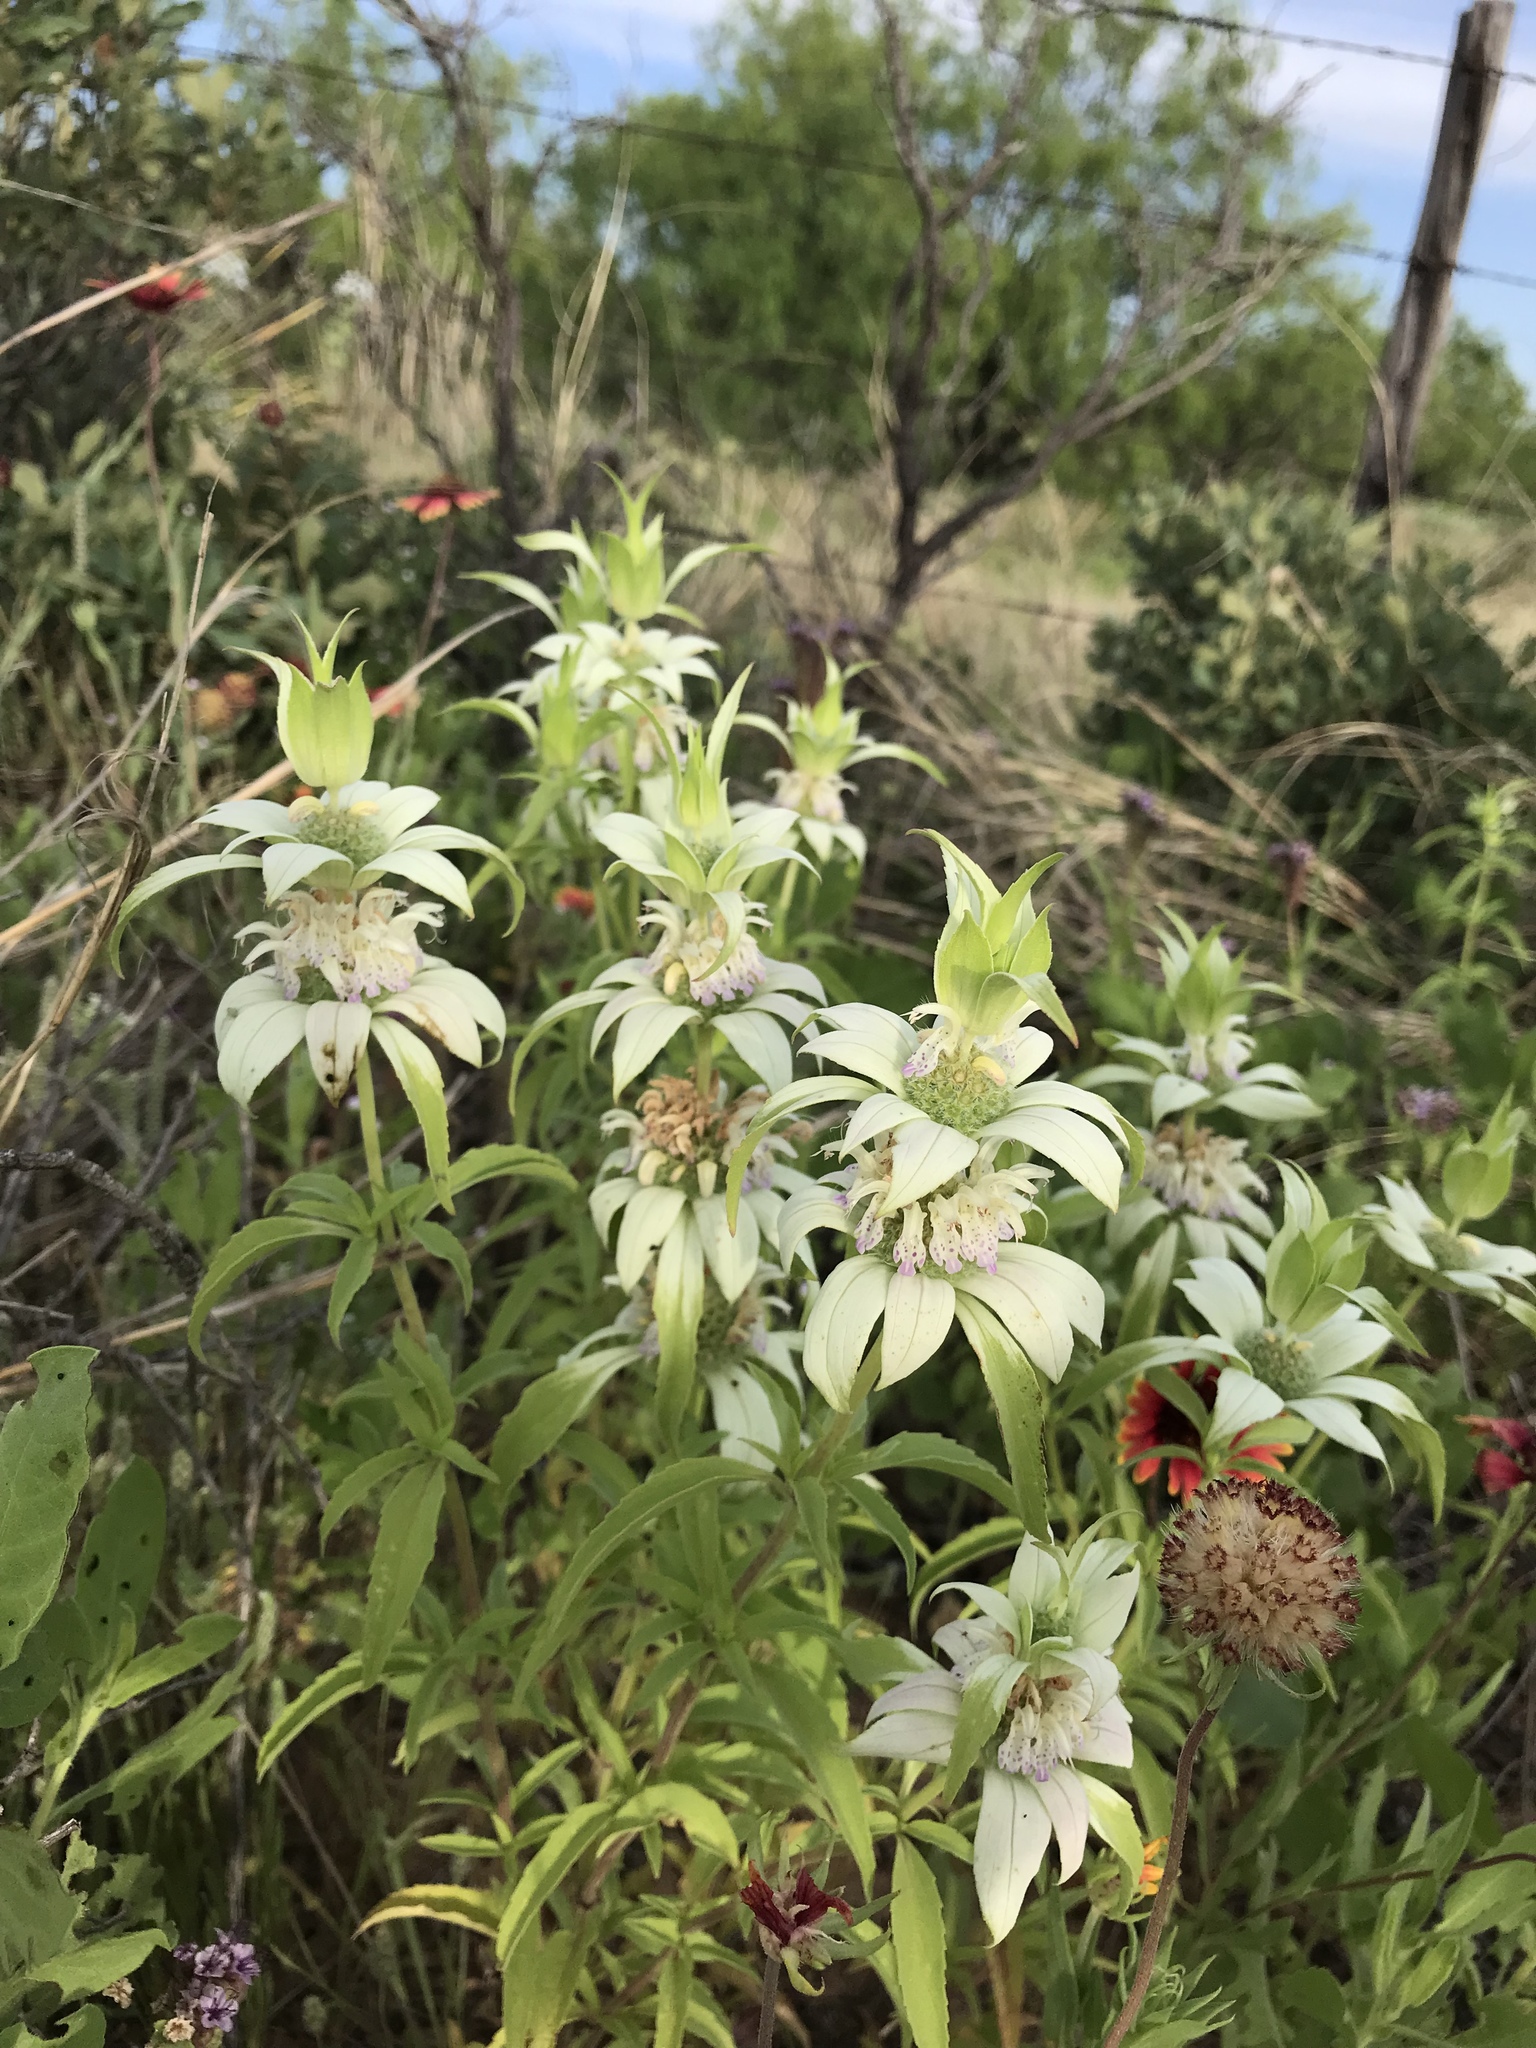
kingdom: Plantae
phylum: Tracheophyta
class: Magnoliopsida
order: Lamiales
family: Lamiaceae
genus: Monarda
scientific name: Monarda punctata
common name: Dotted monarda
